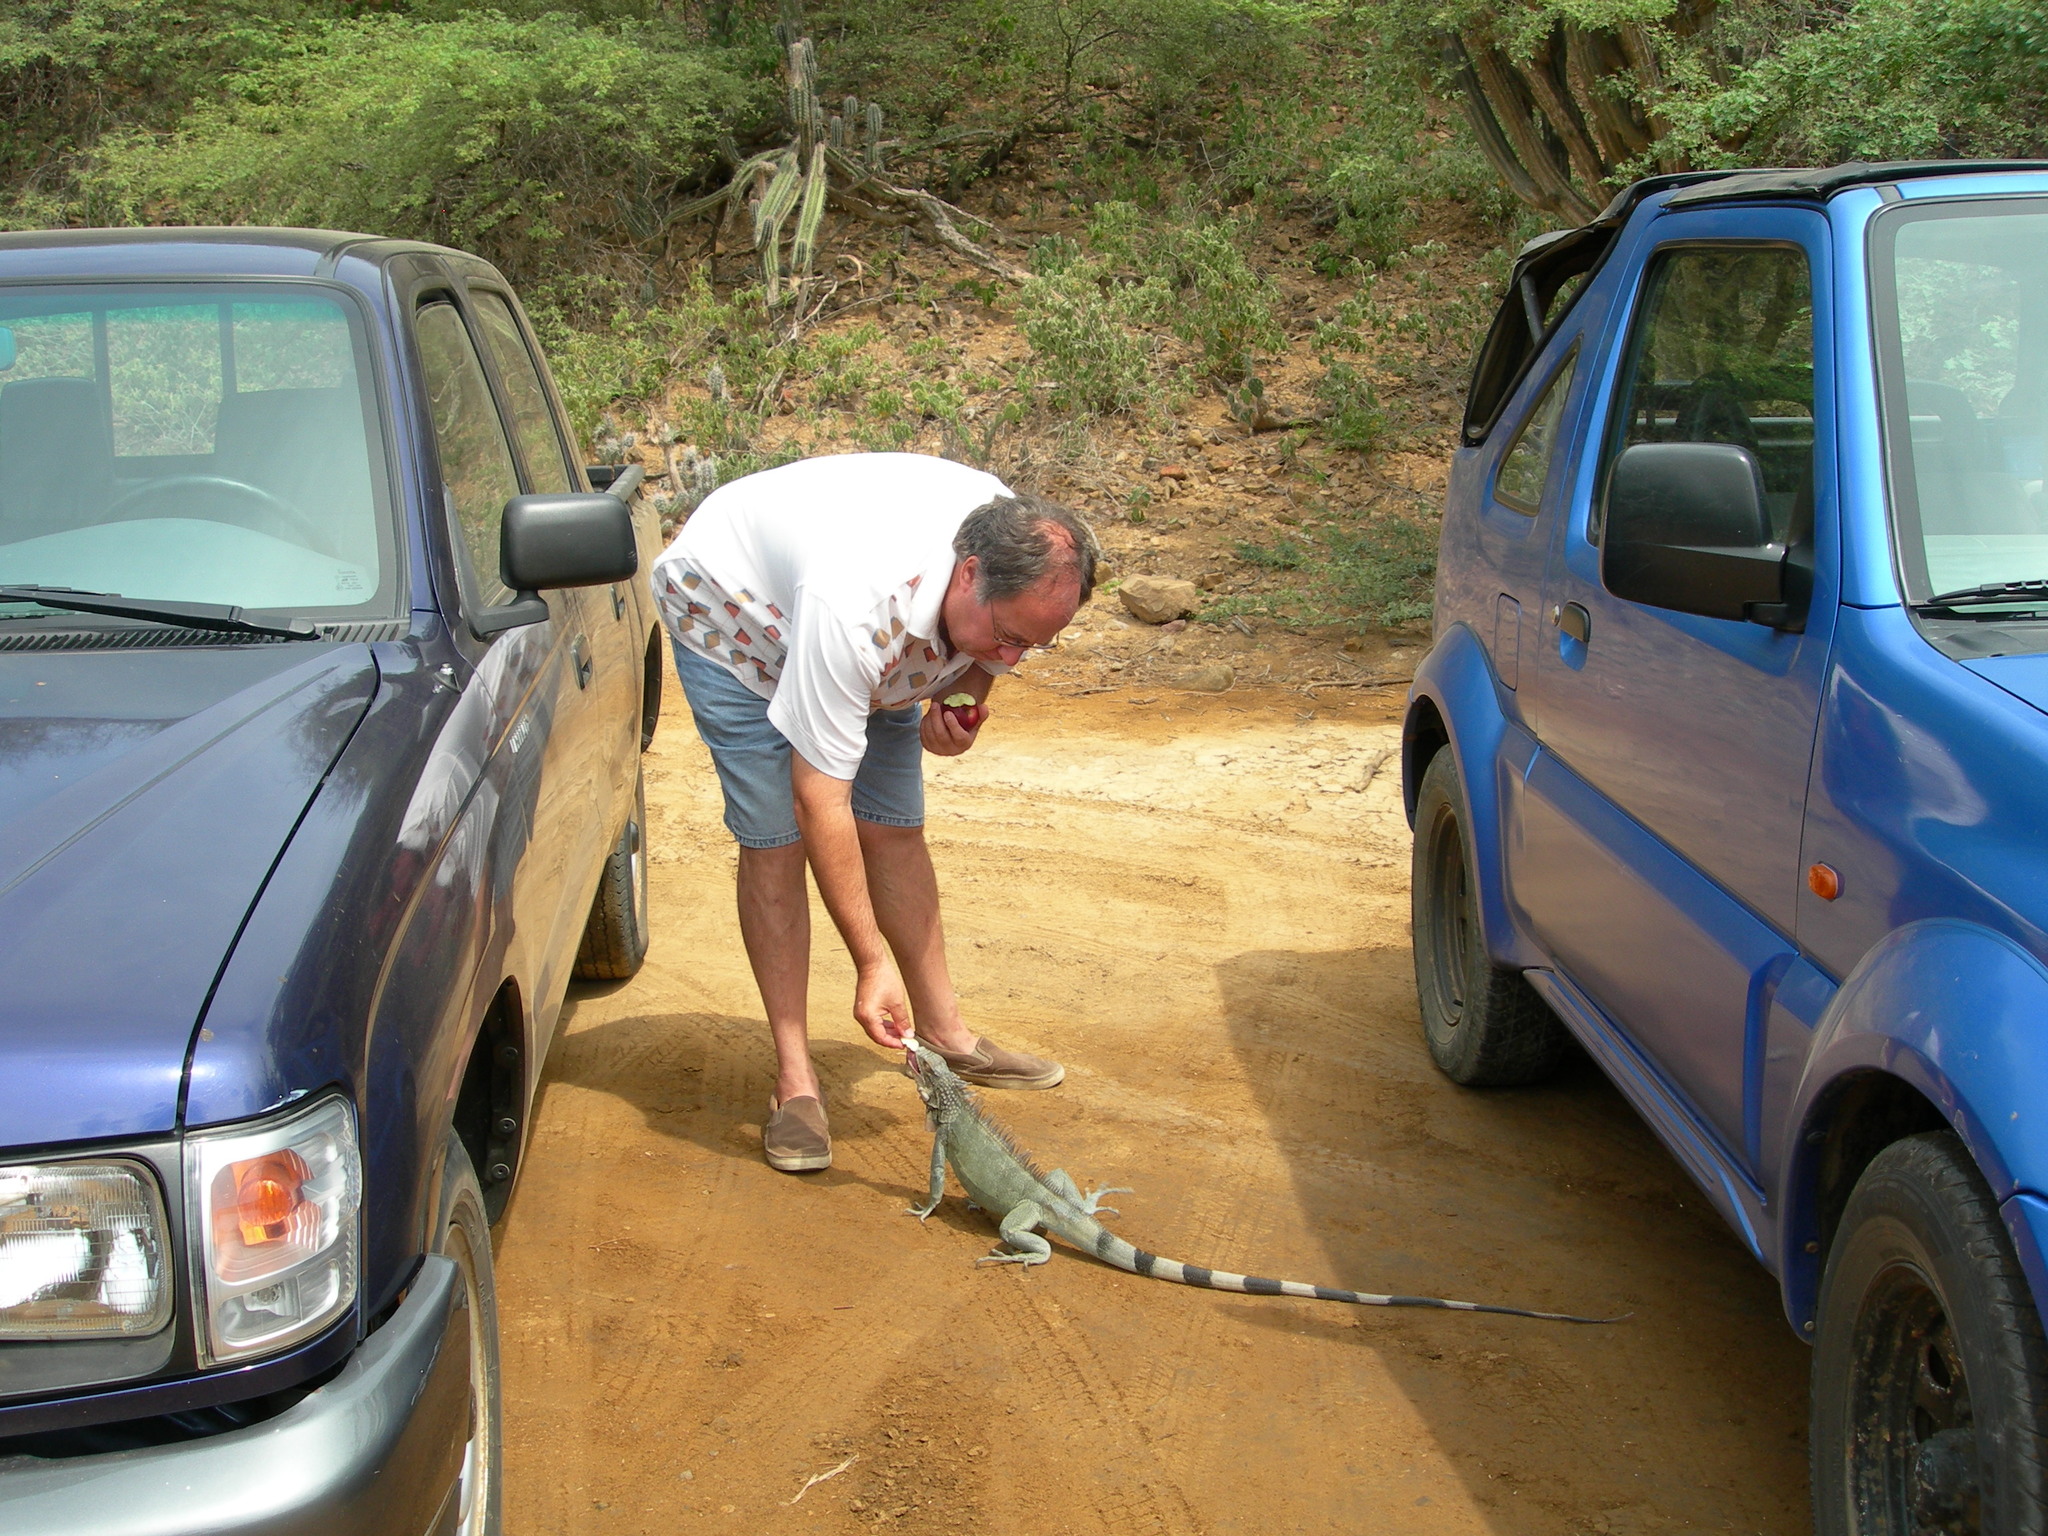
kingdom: Animalia
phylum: Chordata
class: Squamata
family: Iguanidae
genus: Iguana
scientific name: Iguana iguana
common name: Green iguana
